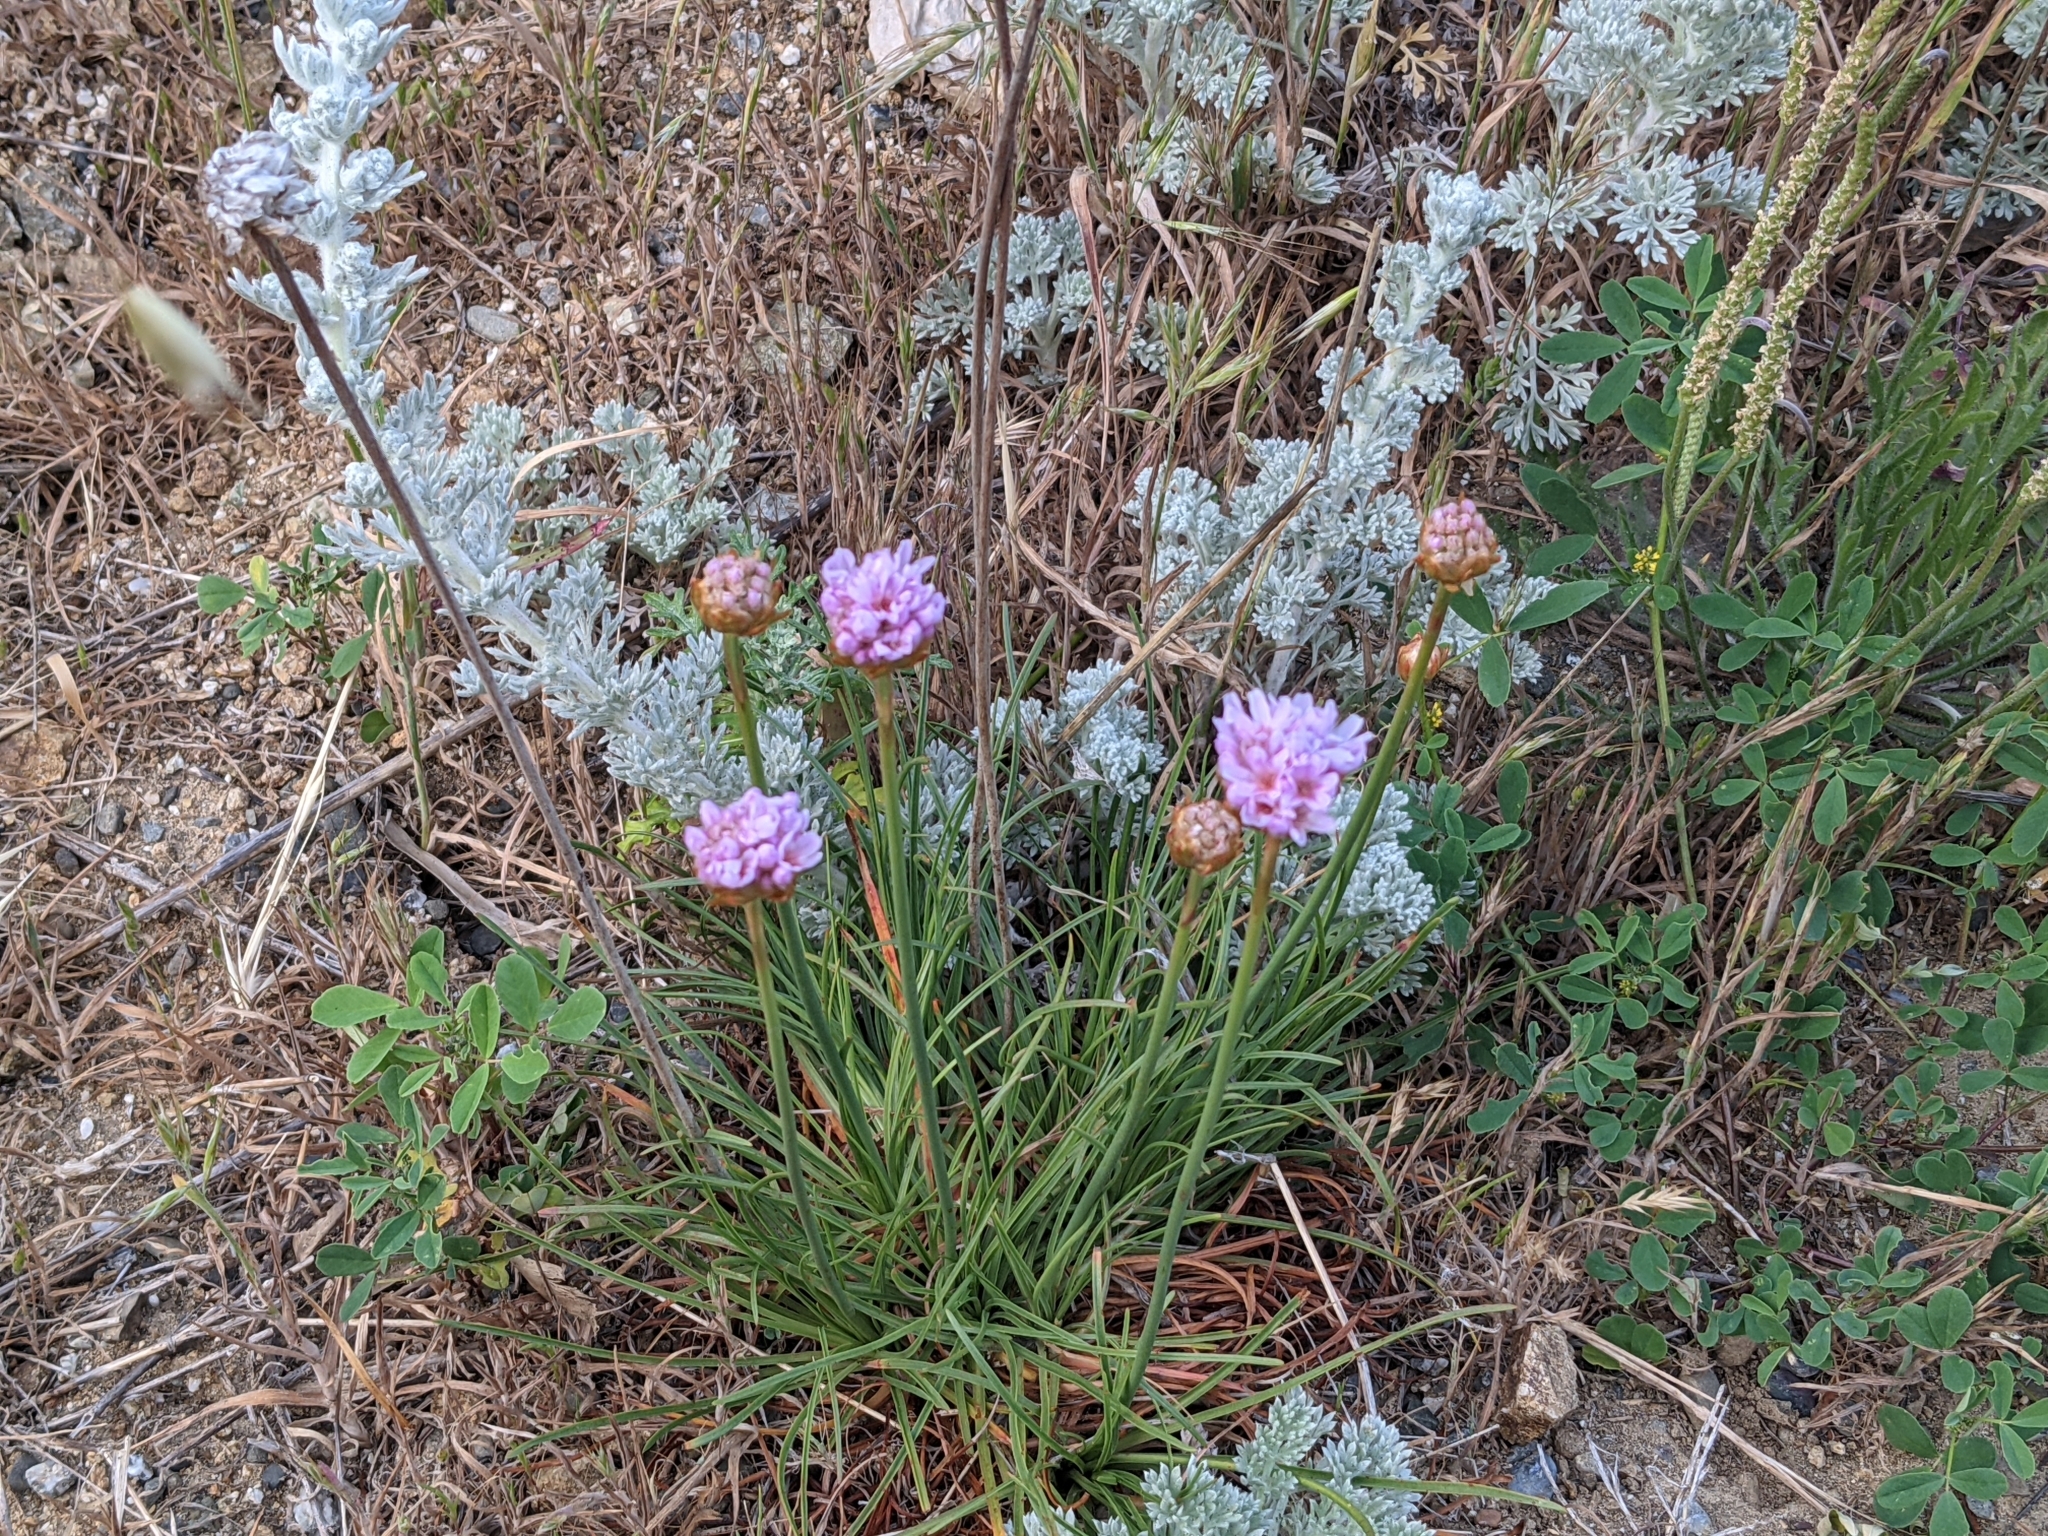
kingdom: Plantae
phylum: Tracheophyta
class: Magnoliopsida
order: Caryophyllales
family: Plumbaginaceae
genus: Armeria
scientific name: Armeria maritima
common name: Thrift
